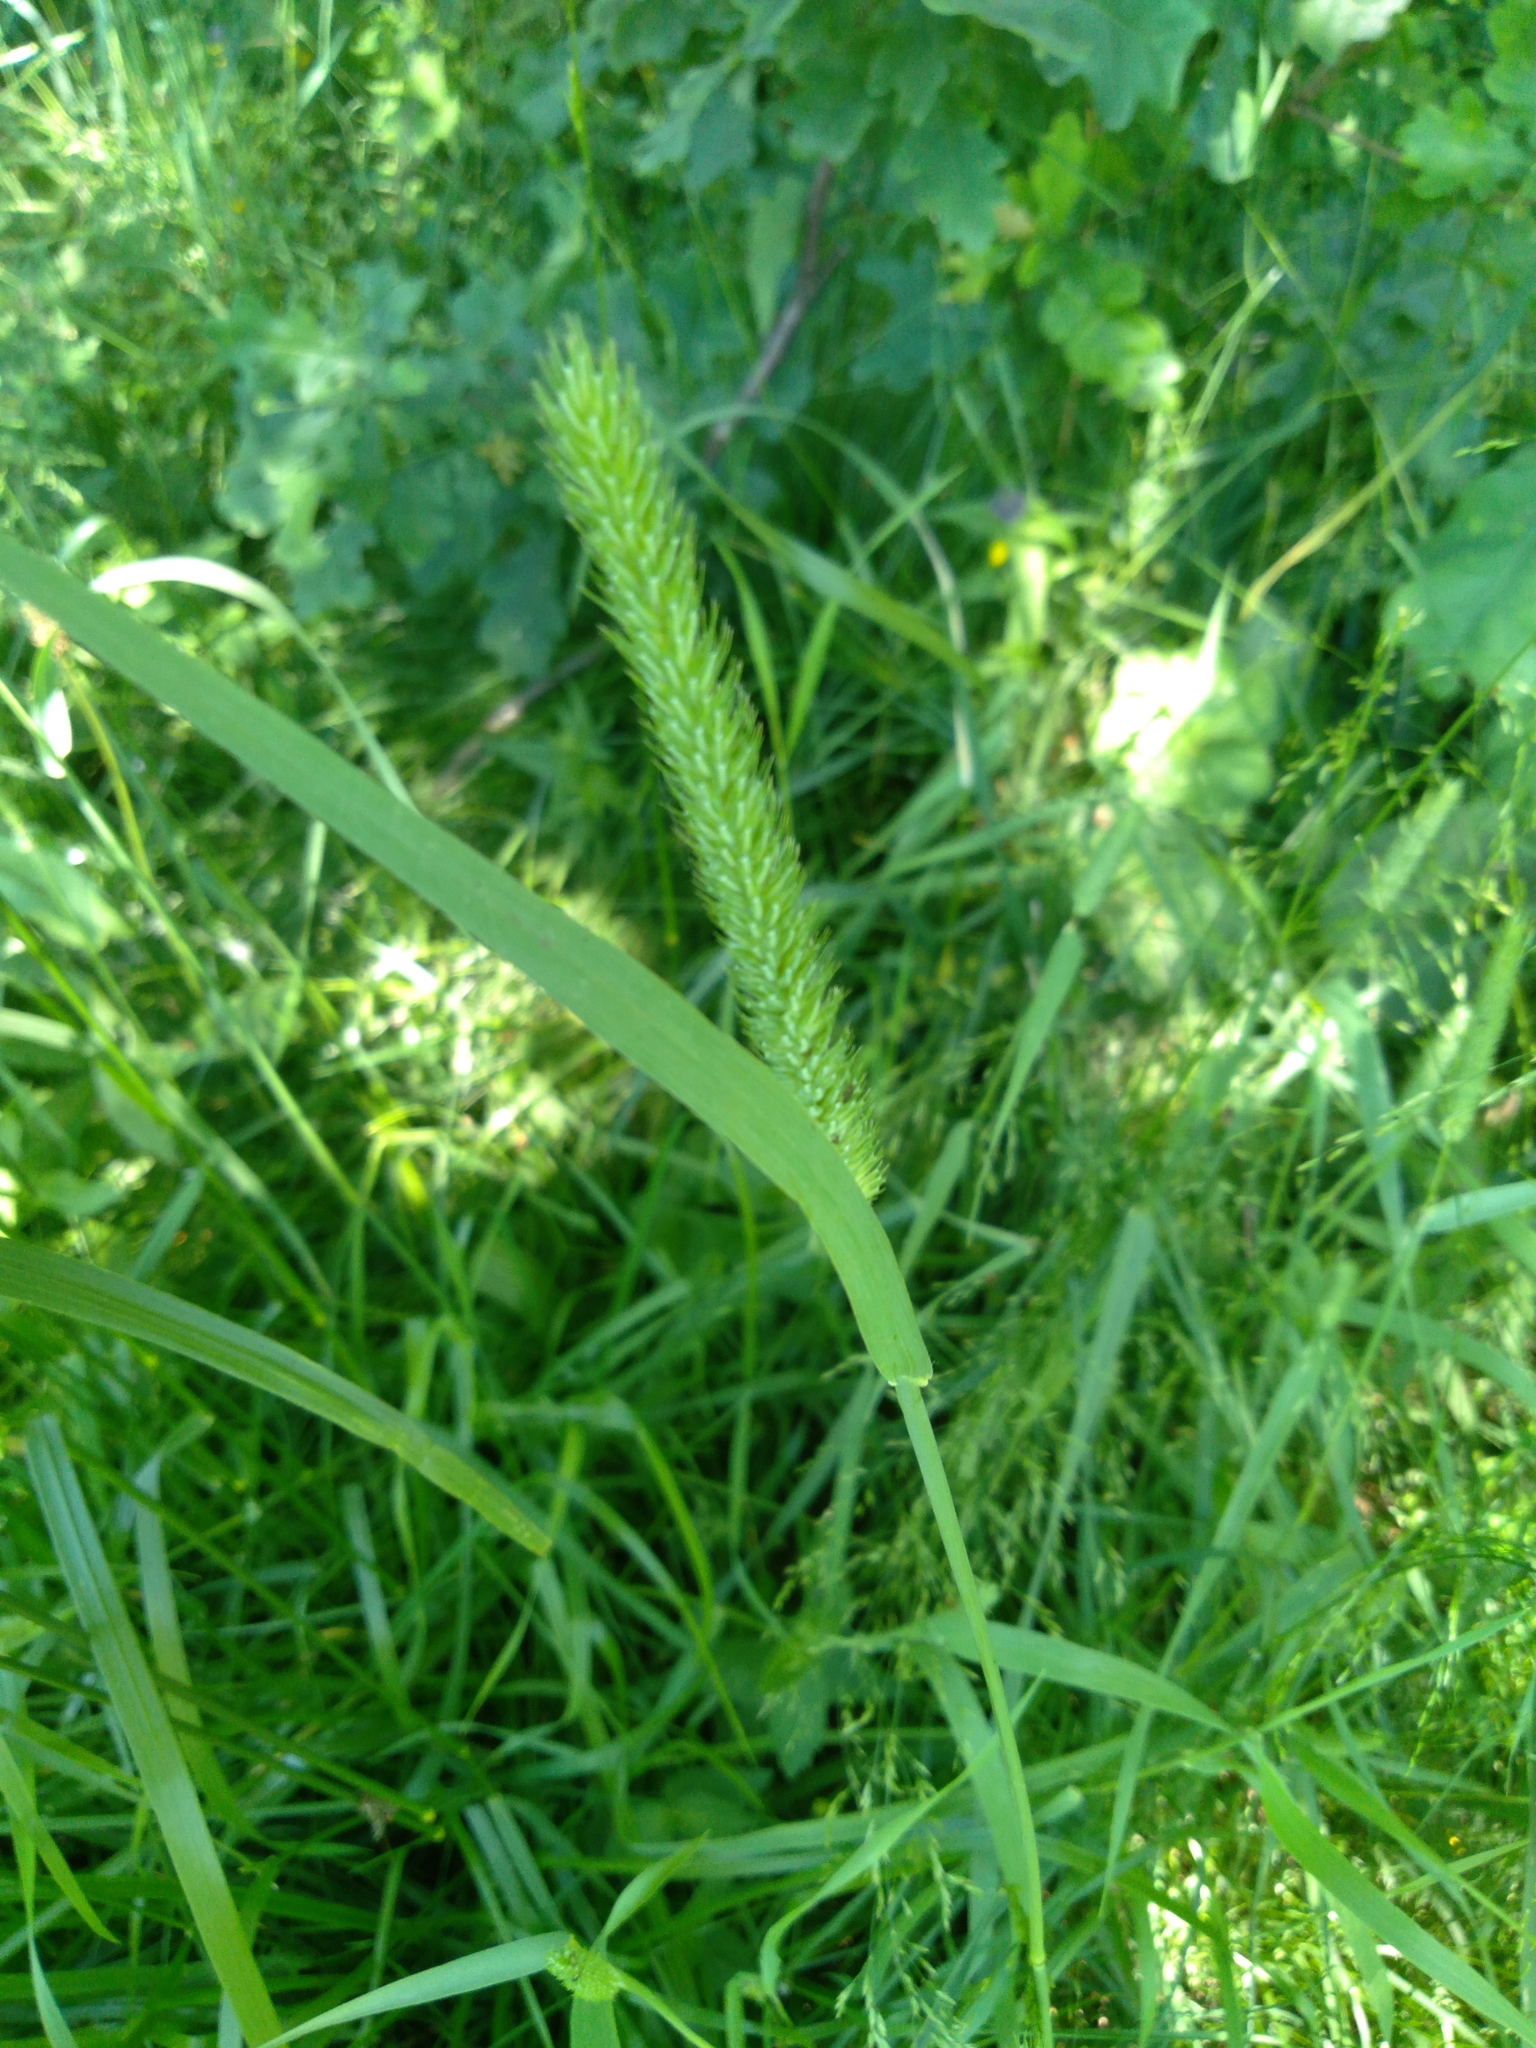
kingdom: Plantae
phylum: Tracheophyta
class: Liliopsida
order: Poales
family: Poaceae
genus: Phleum
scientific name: Phleum pratense
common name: Timothy grass
